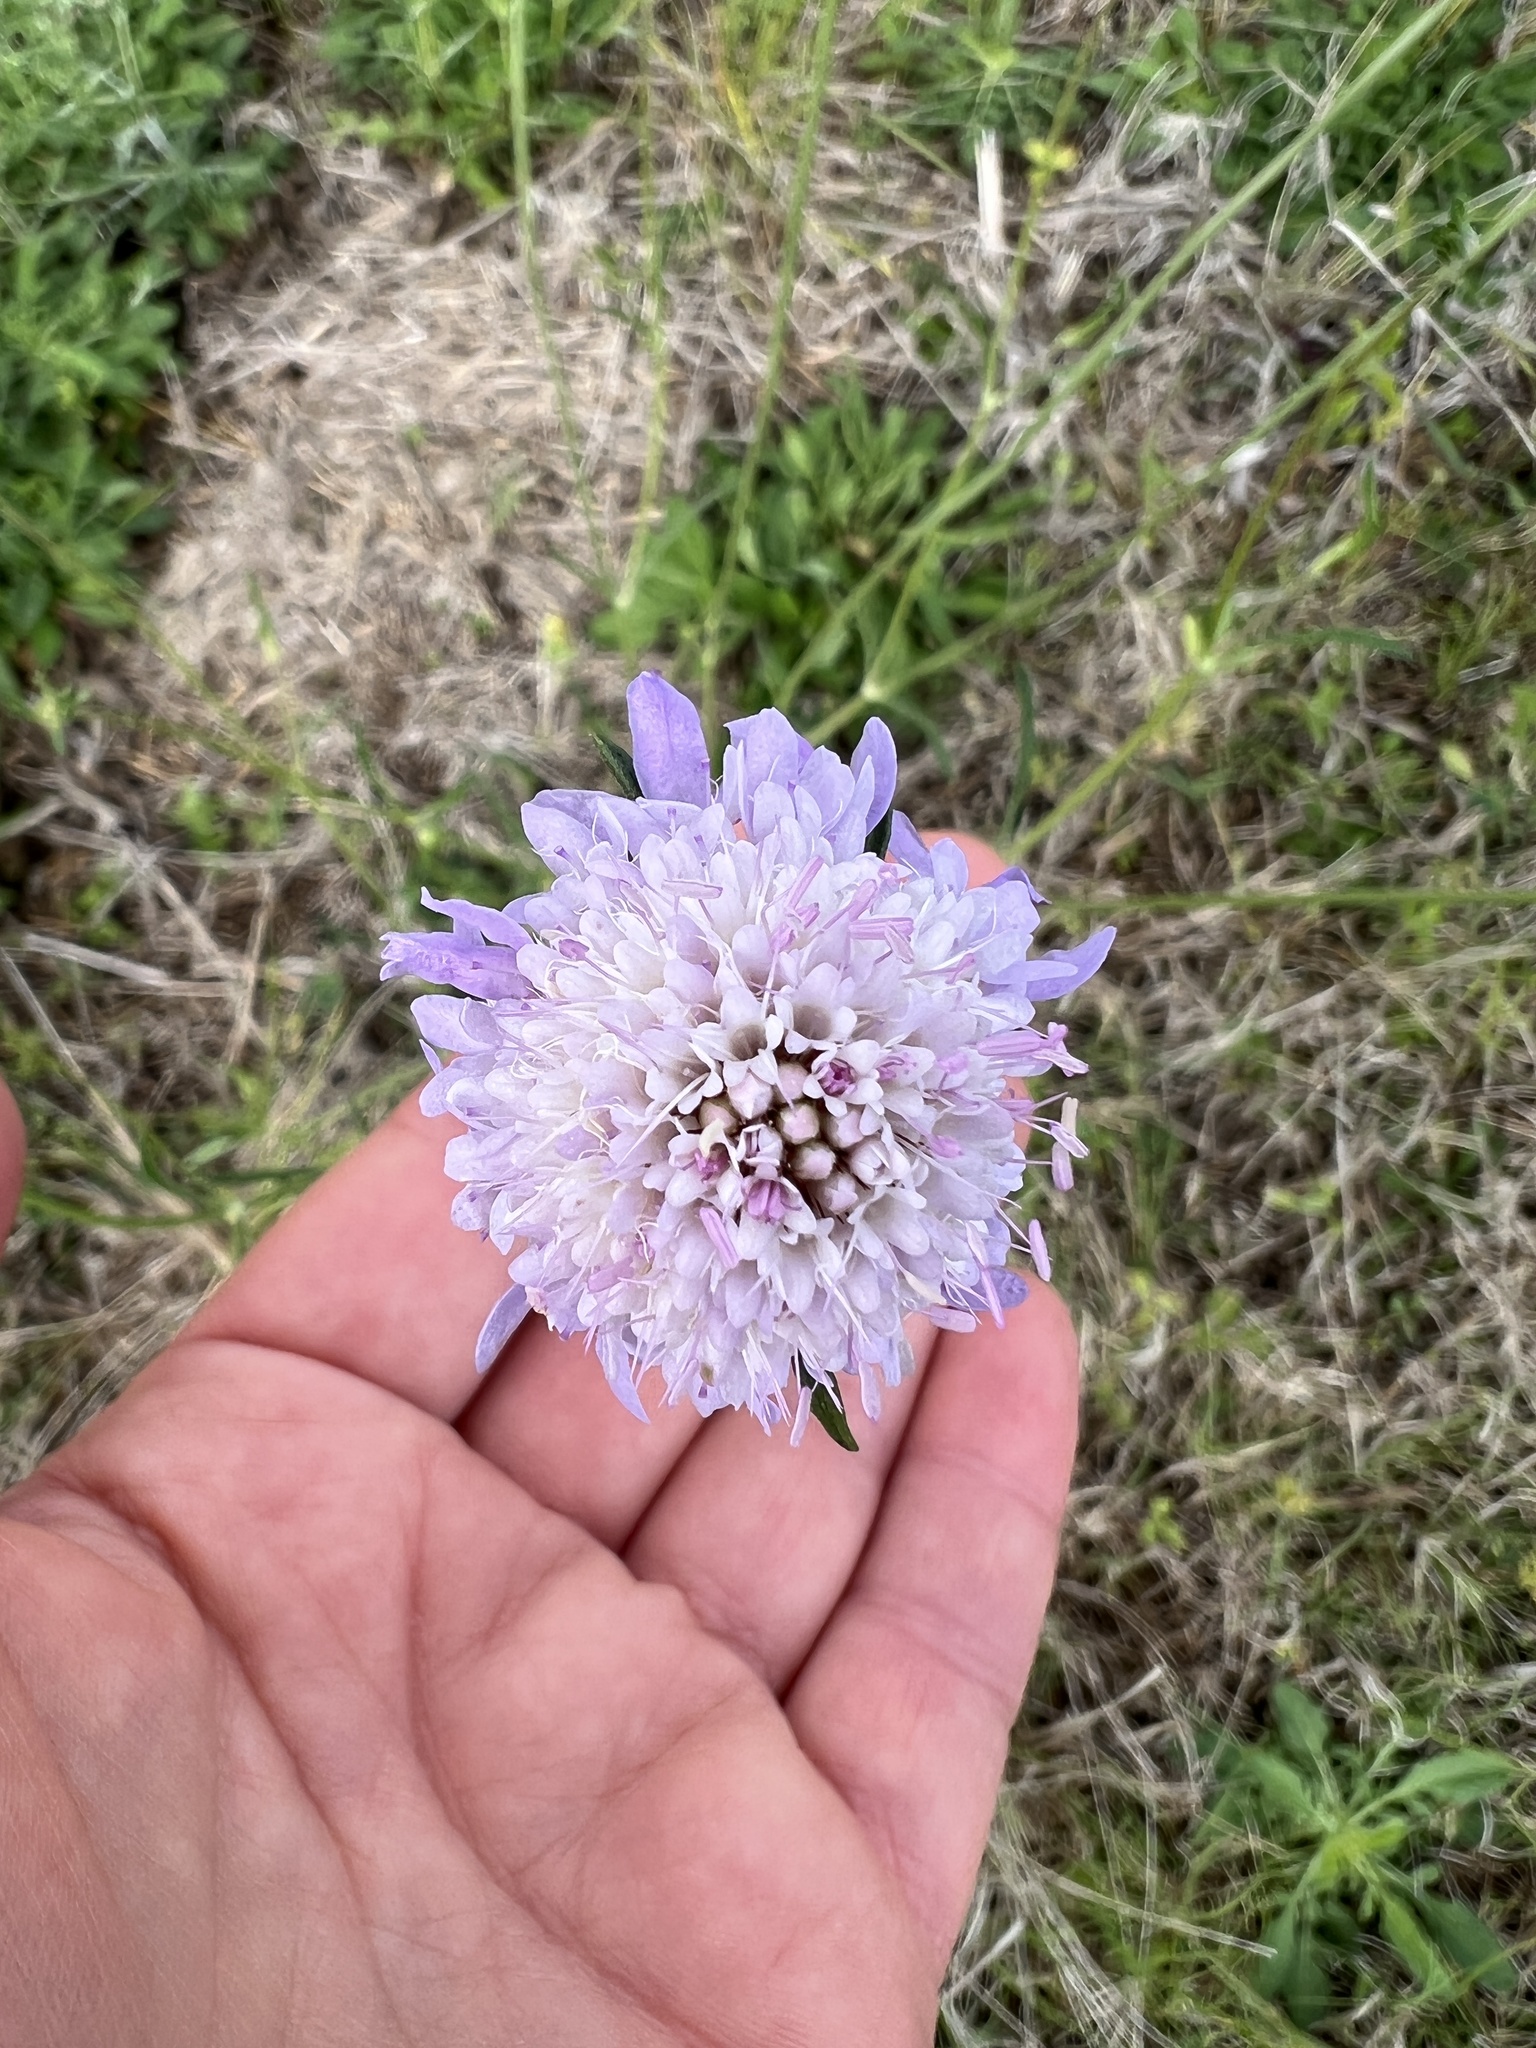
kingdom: Plantae
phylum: Tracheophyta
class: Magnoliopsida
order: Dipsacales
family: Caprifoliaceae
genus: Sixalix
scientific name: Sixalix atropurpurea
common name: Sweet scabious
